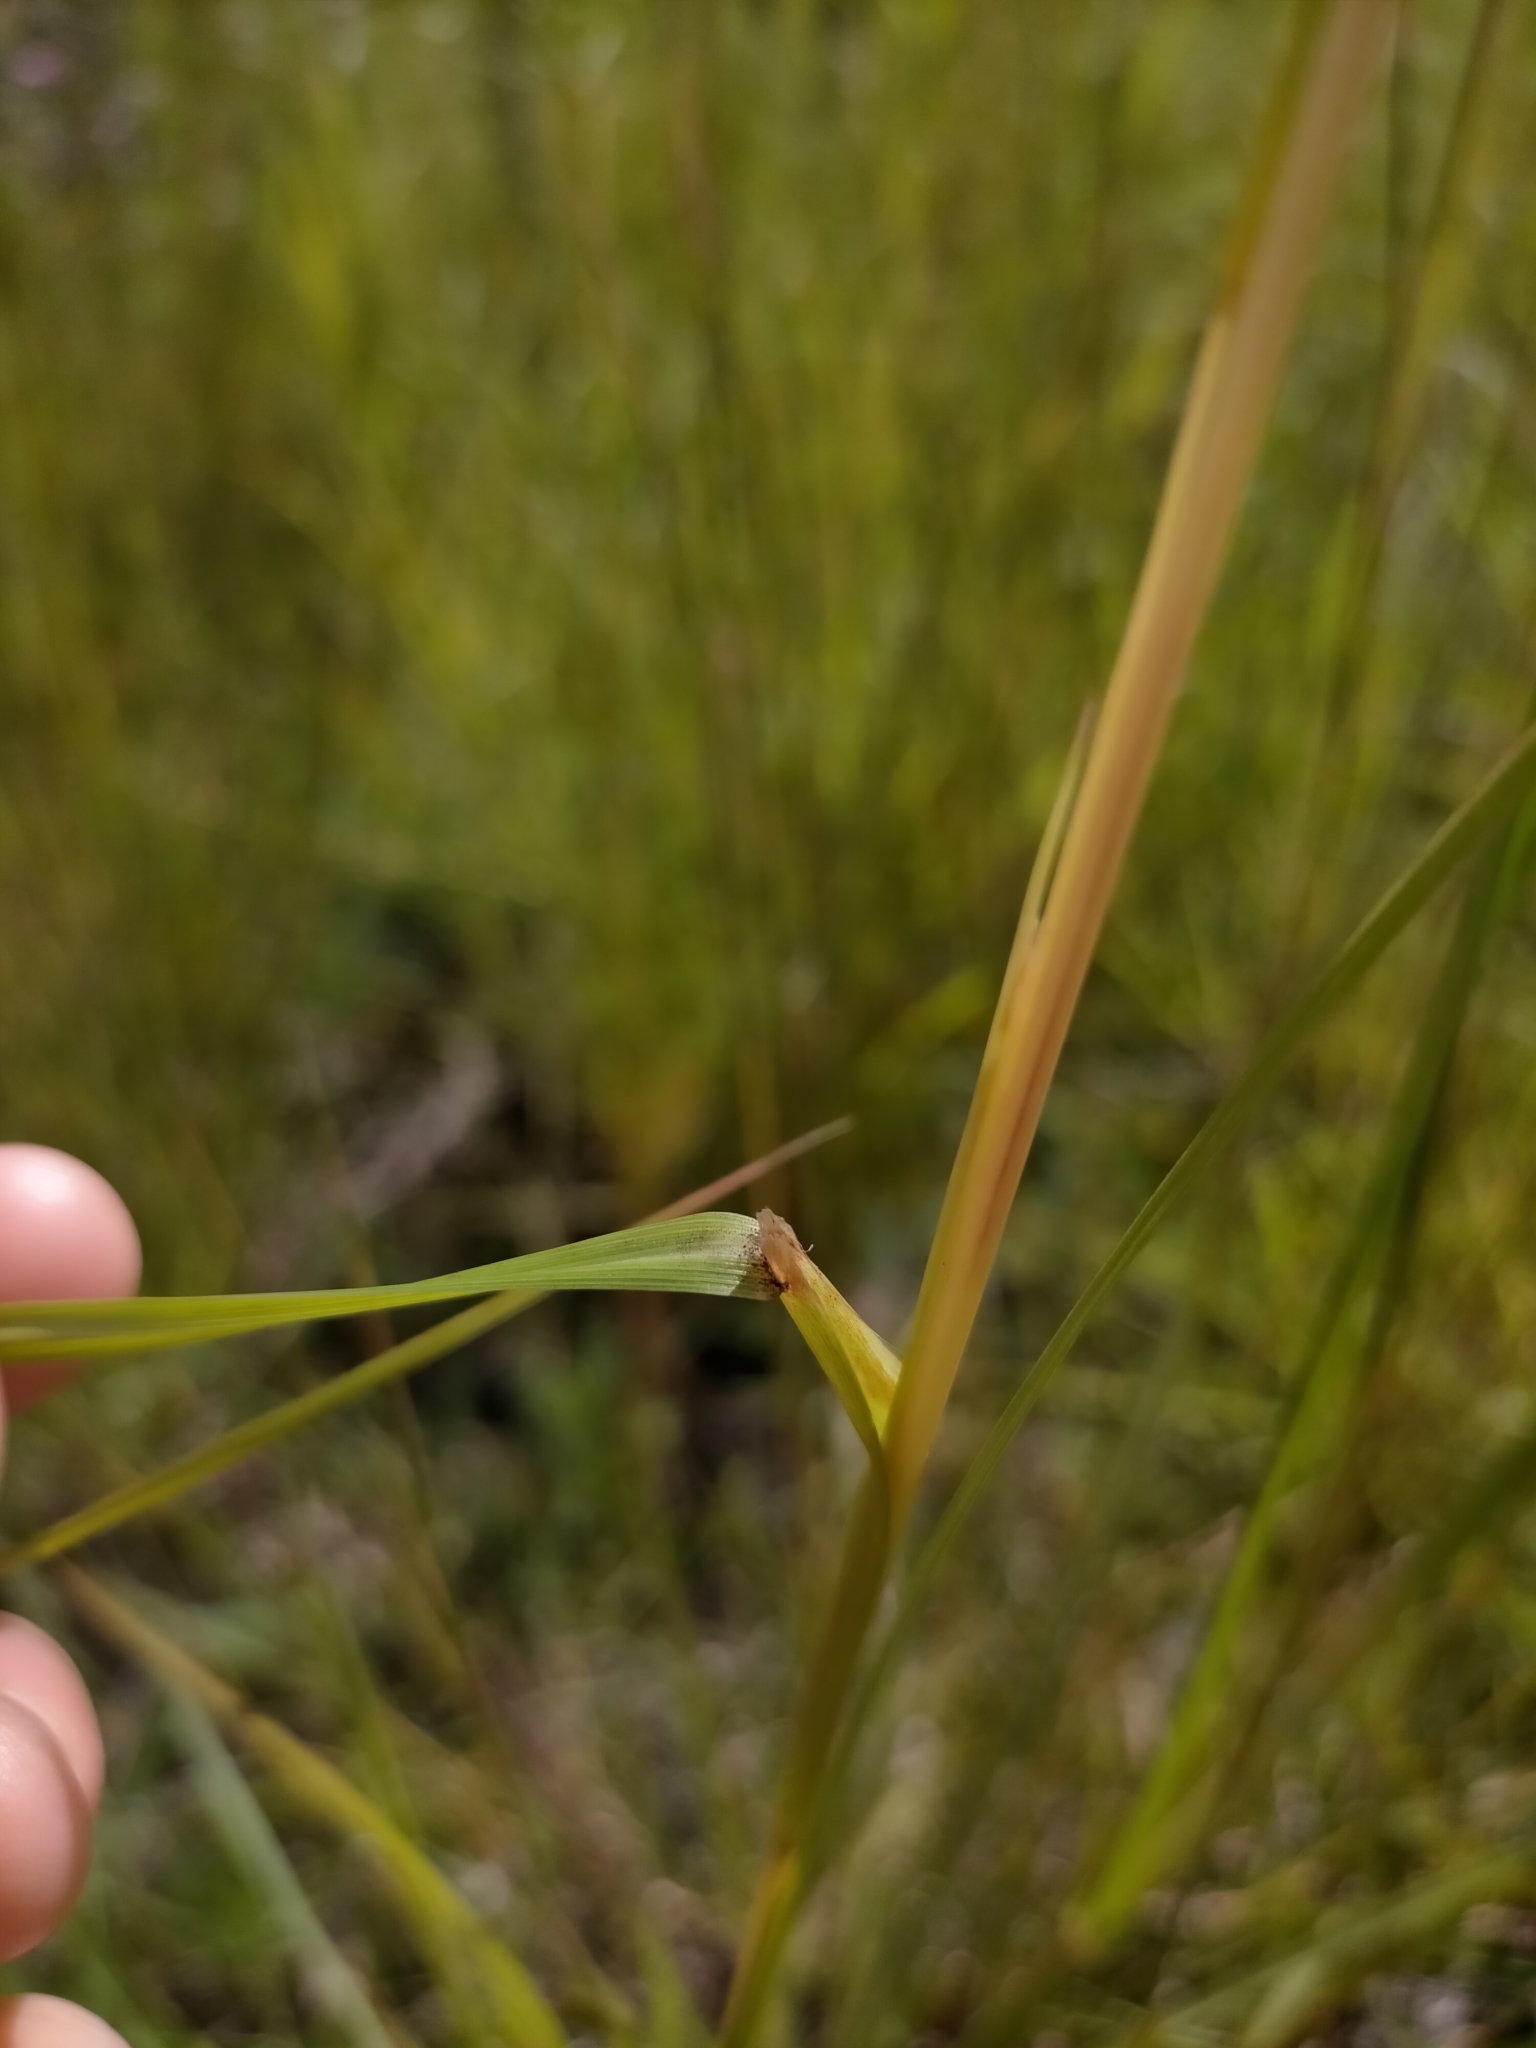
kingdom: Plantae
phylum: Tracheophyta
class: Liliopsida
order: Poales
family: Poaceae
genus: Hyparrhenia
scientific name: Hyparrhenia rufa
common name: Jaraguagrass
